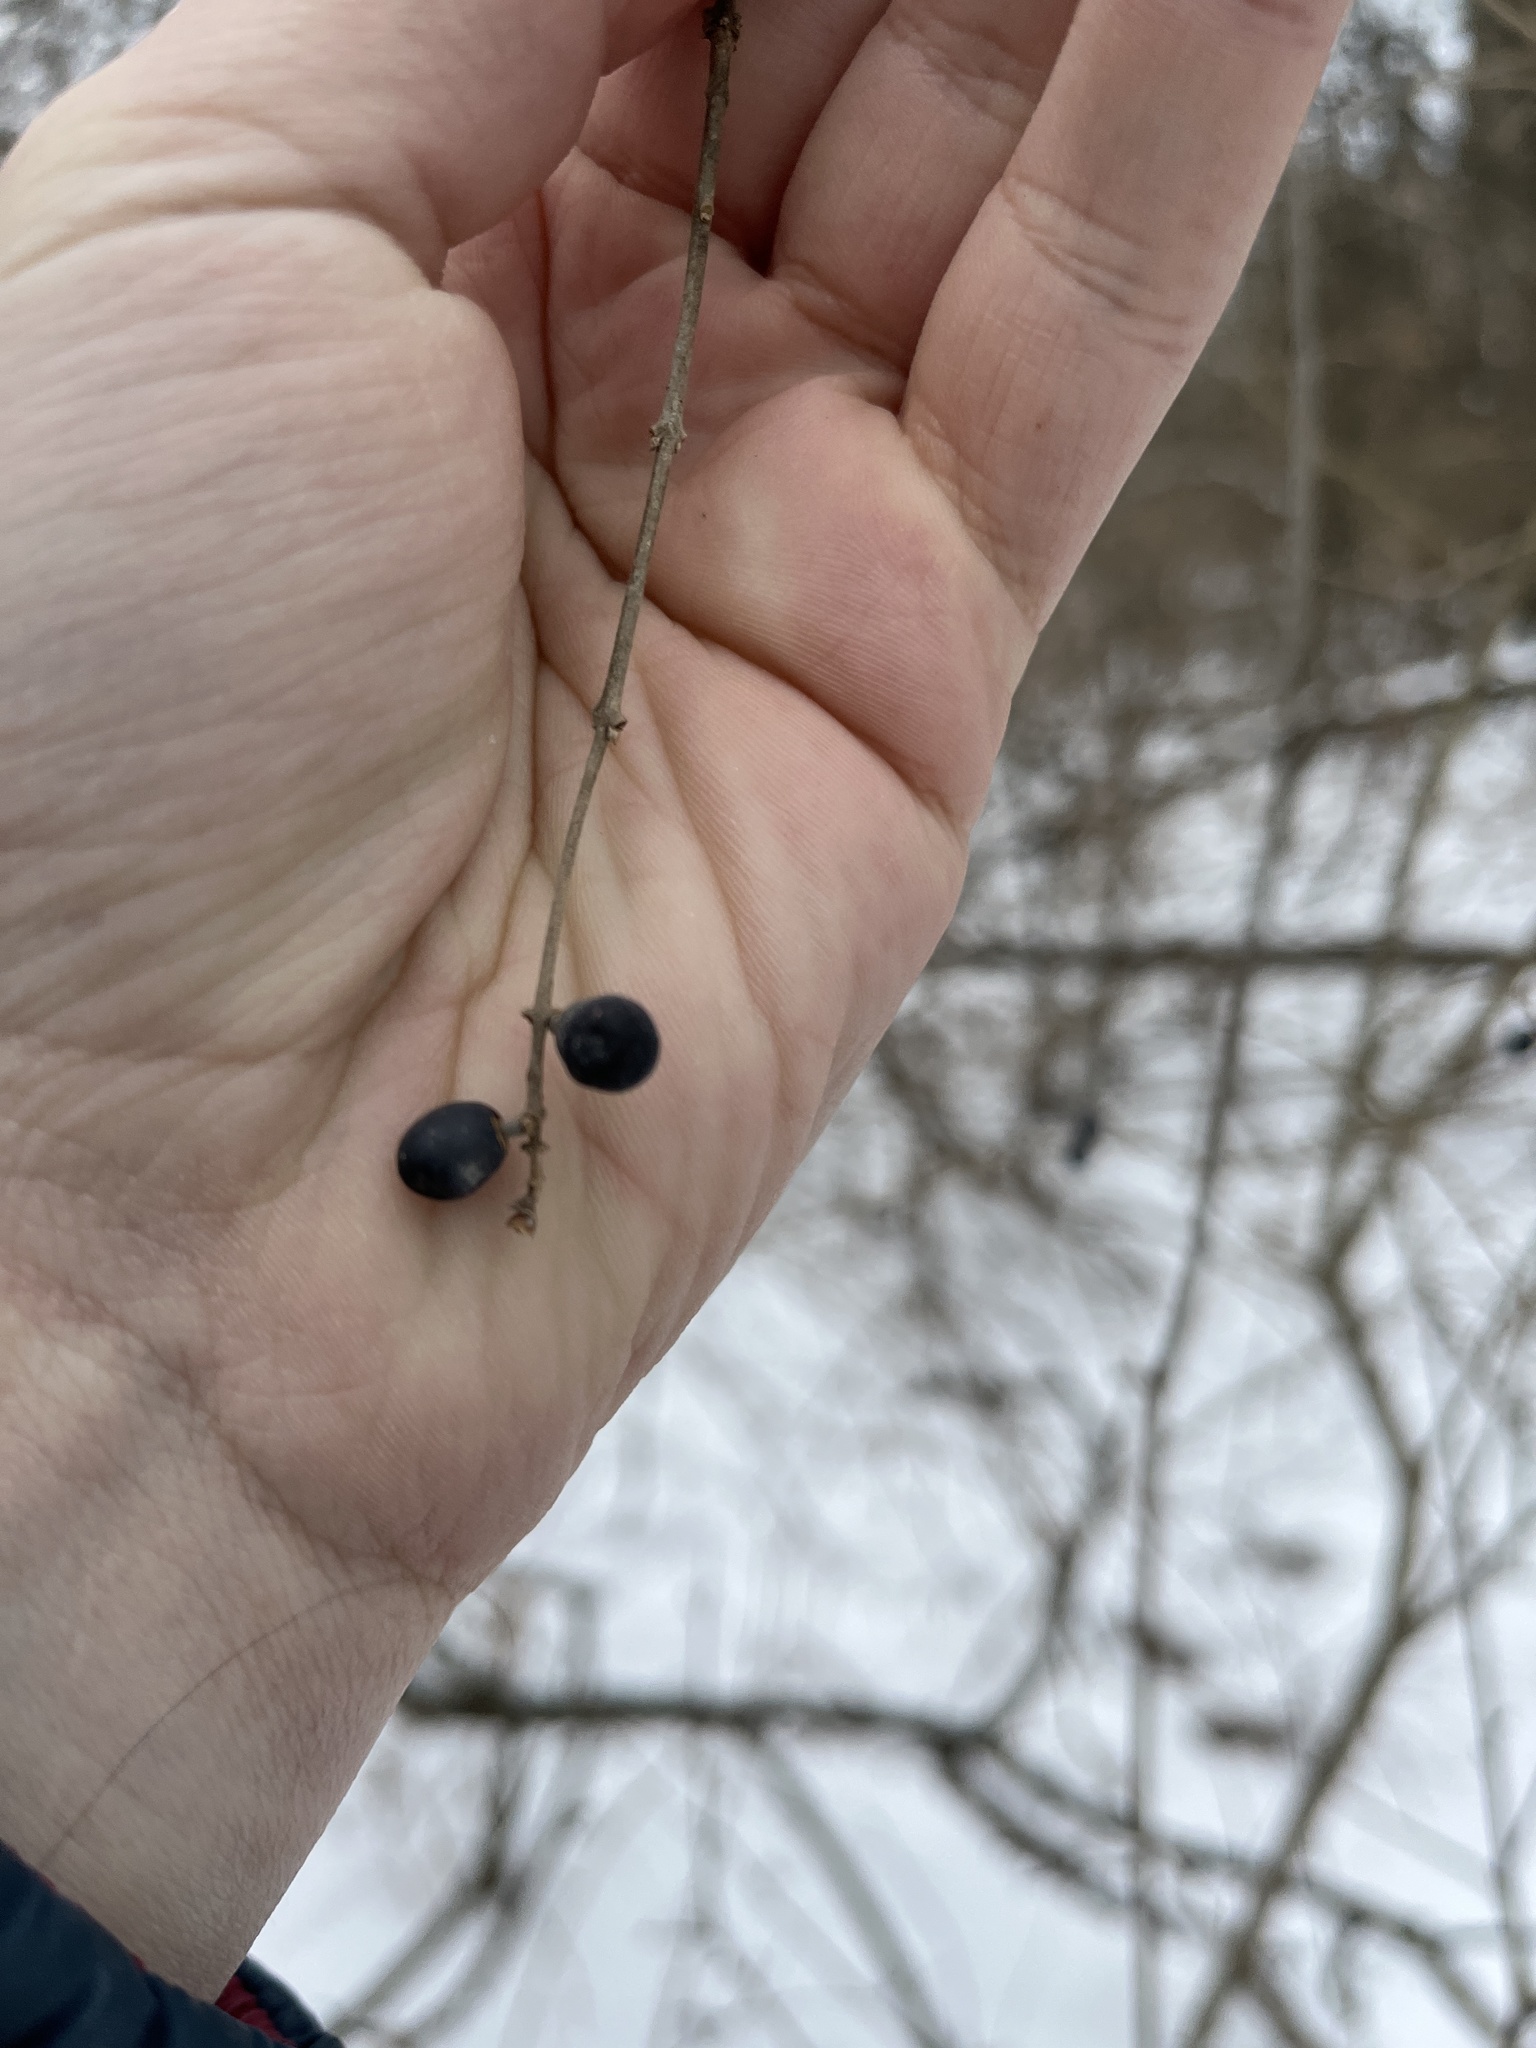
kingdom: Plantae
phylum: Tracheophyta
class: Magnoliopsida
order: Lamiales
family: Oleaceae
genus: Ligustrum
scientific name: Ligustrum obtusifolium
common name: Border privet
